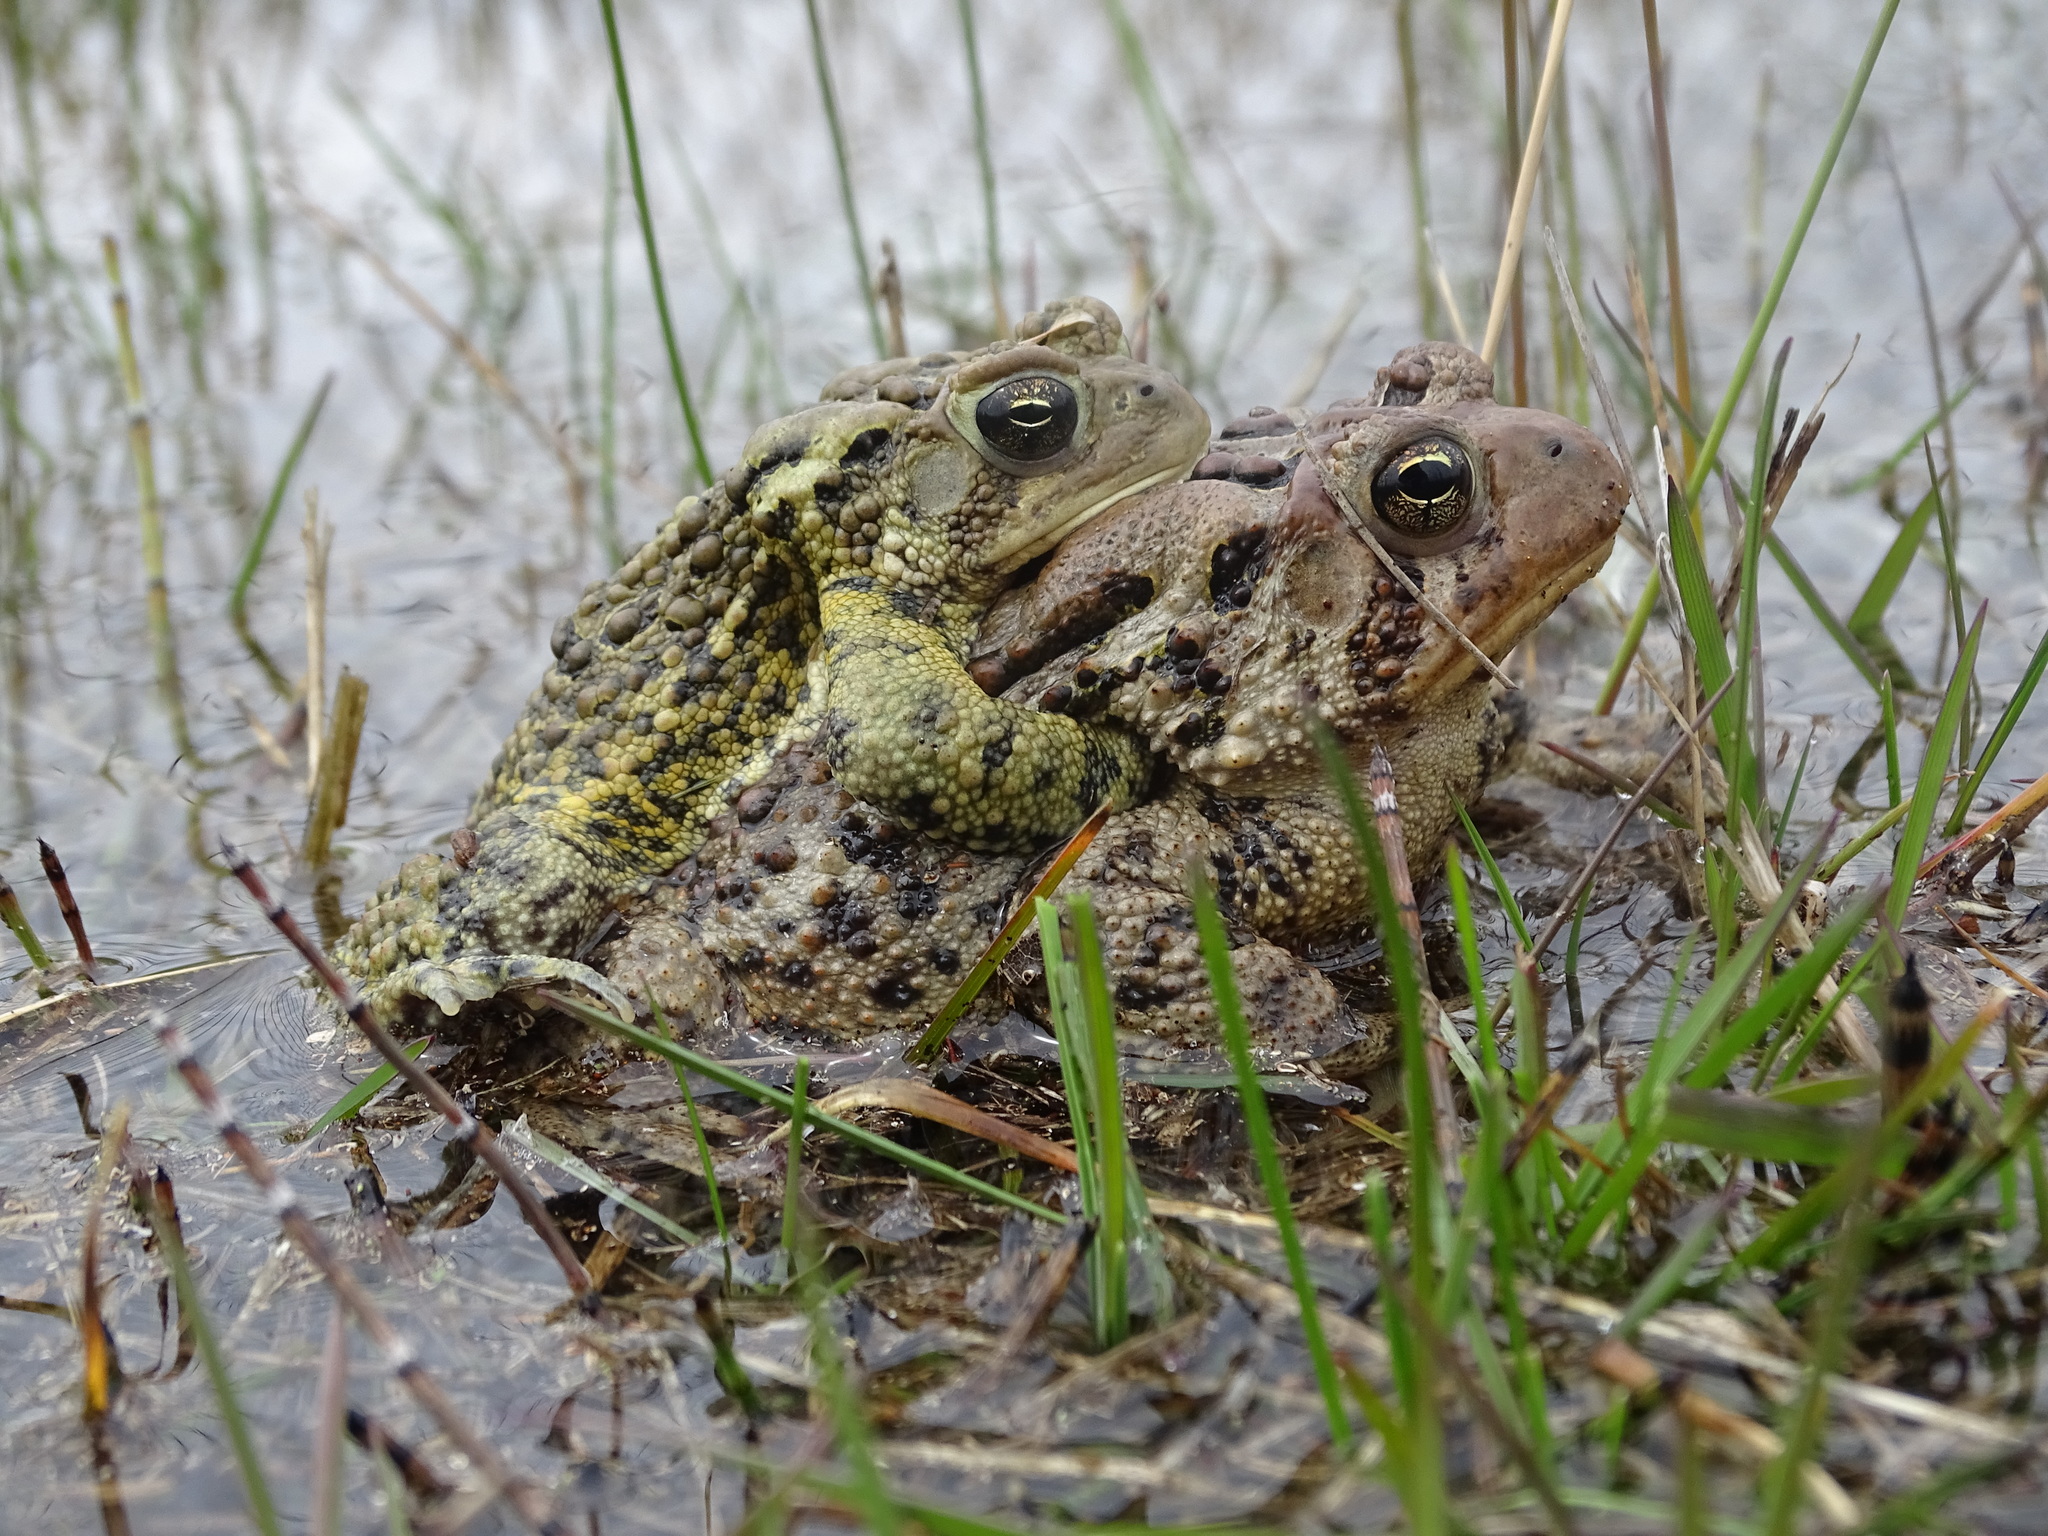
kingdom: Animalia
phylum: Chordata
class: Amphibia
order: Anura
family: Bufonidae
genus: Anaxyrus
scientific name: Anaxyrus americanus
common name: American toad
